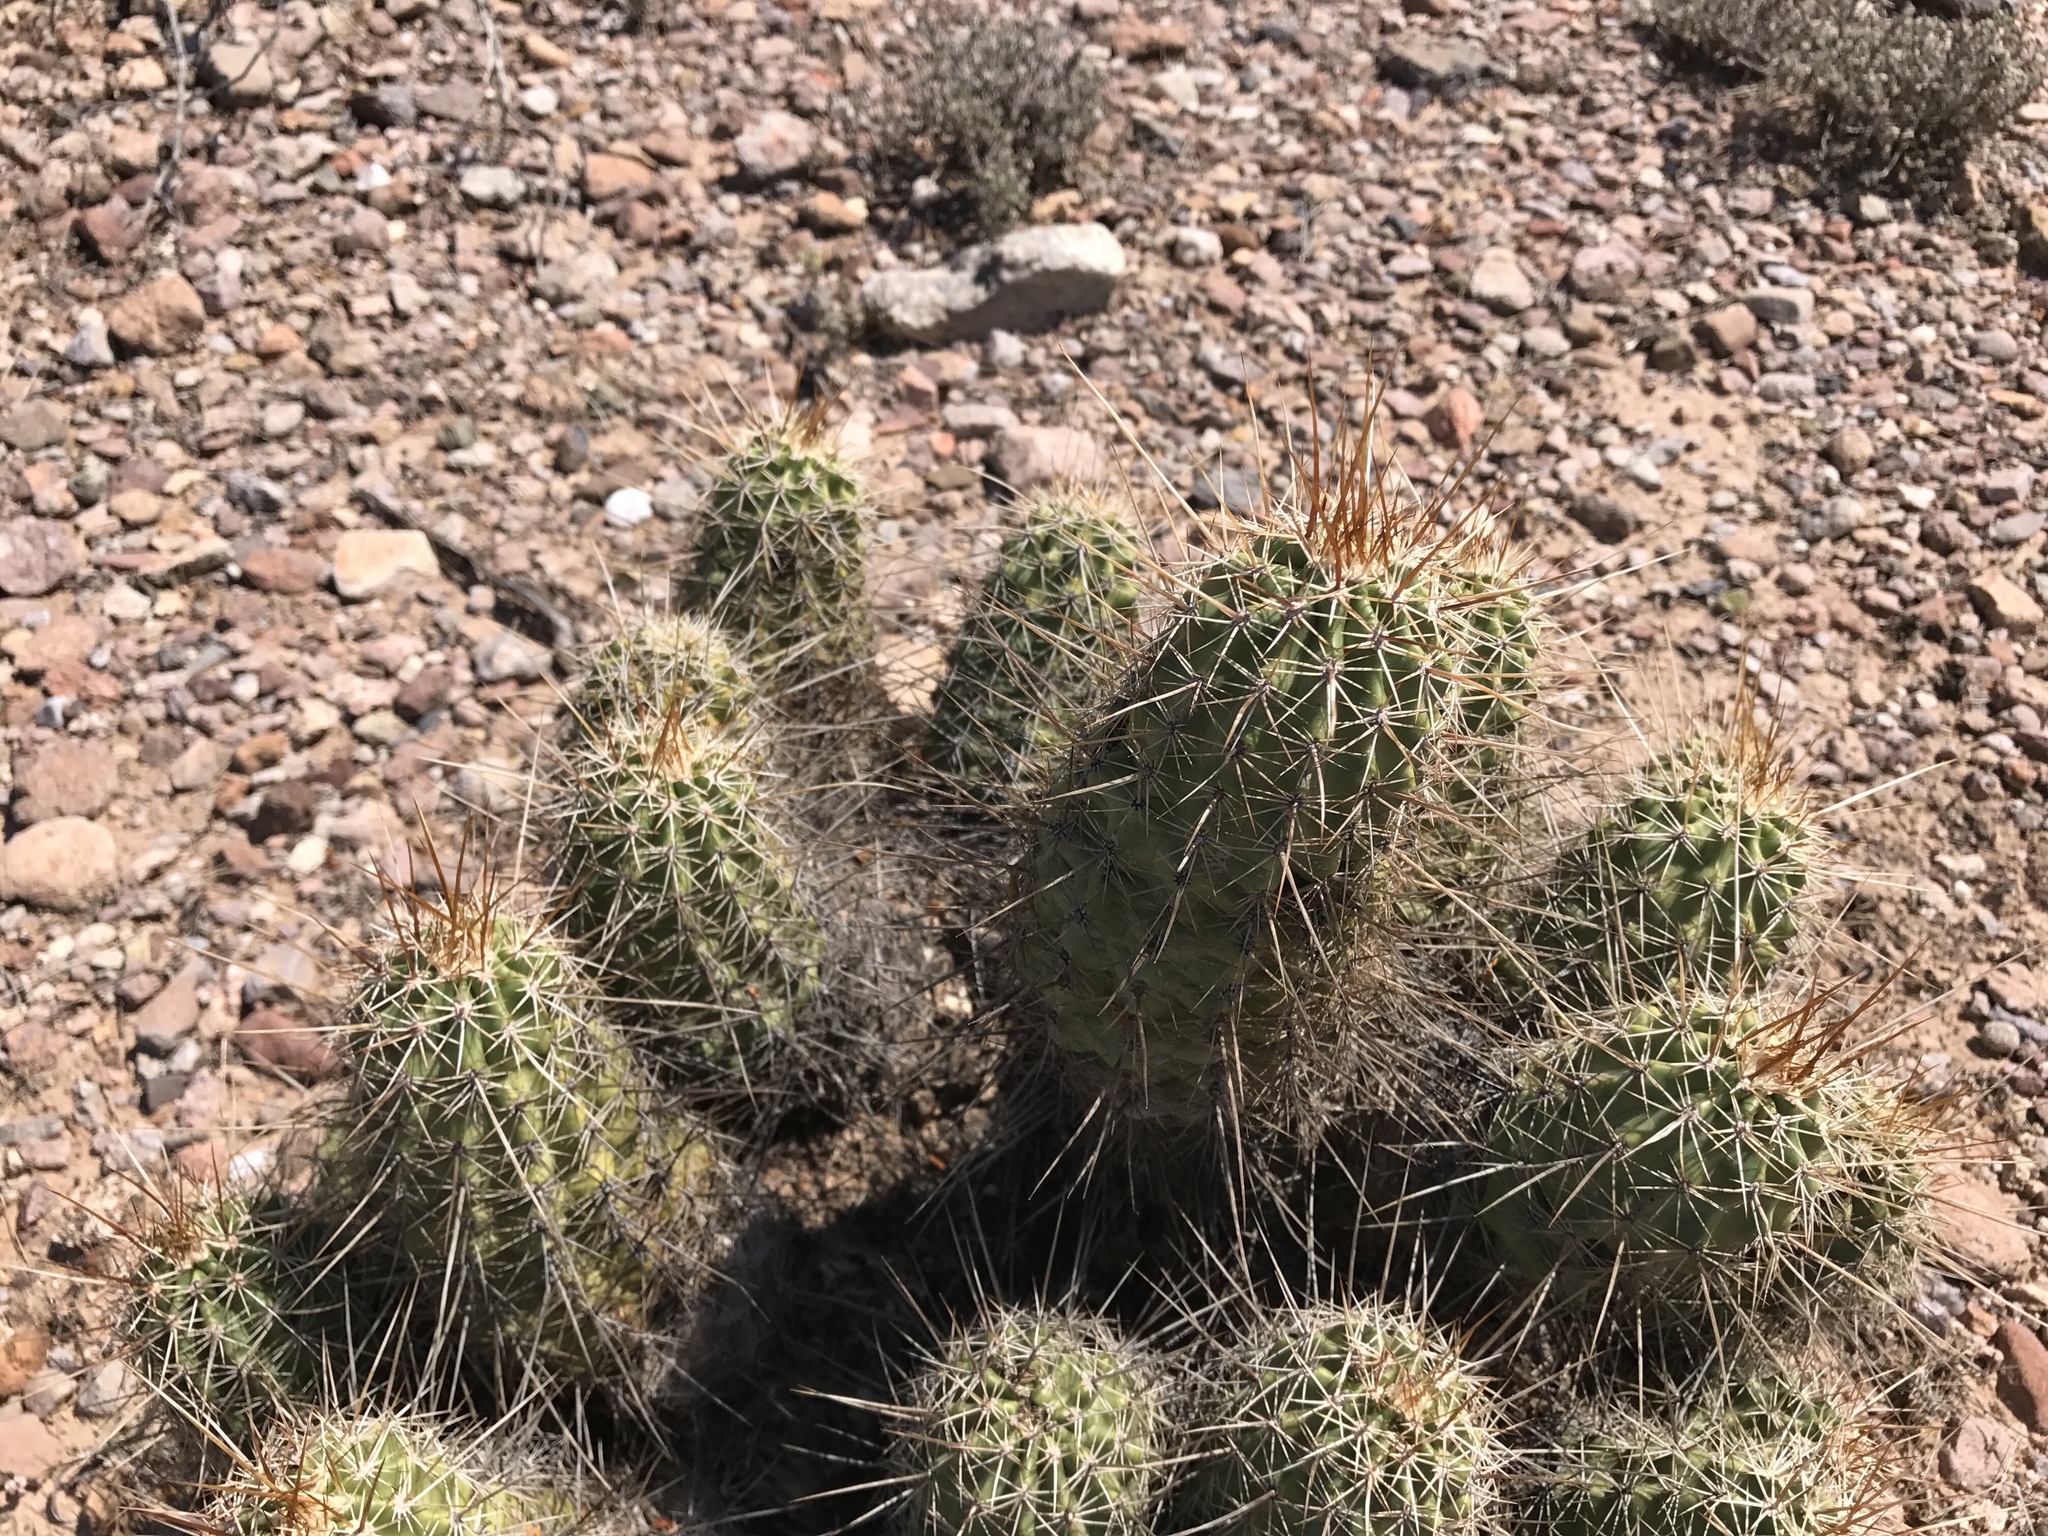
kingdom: Plantae
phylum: Tracheophyta
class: Magnoliopsida
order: Caryophyllales
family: Cactaceae
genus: Echinocereus
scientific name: Echinocereus fasciculatus
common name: Bundle hedgehog
